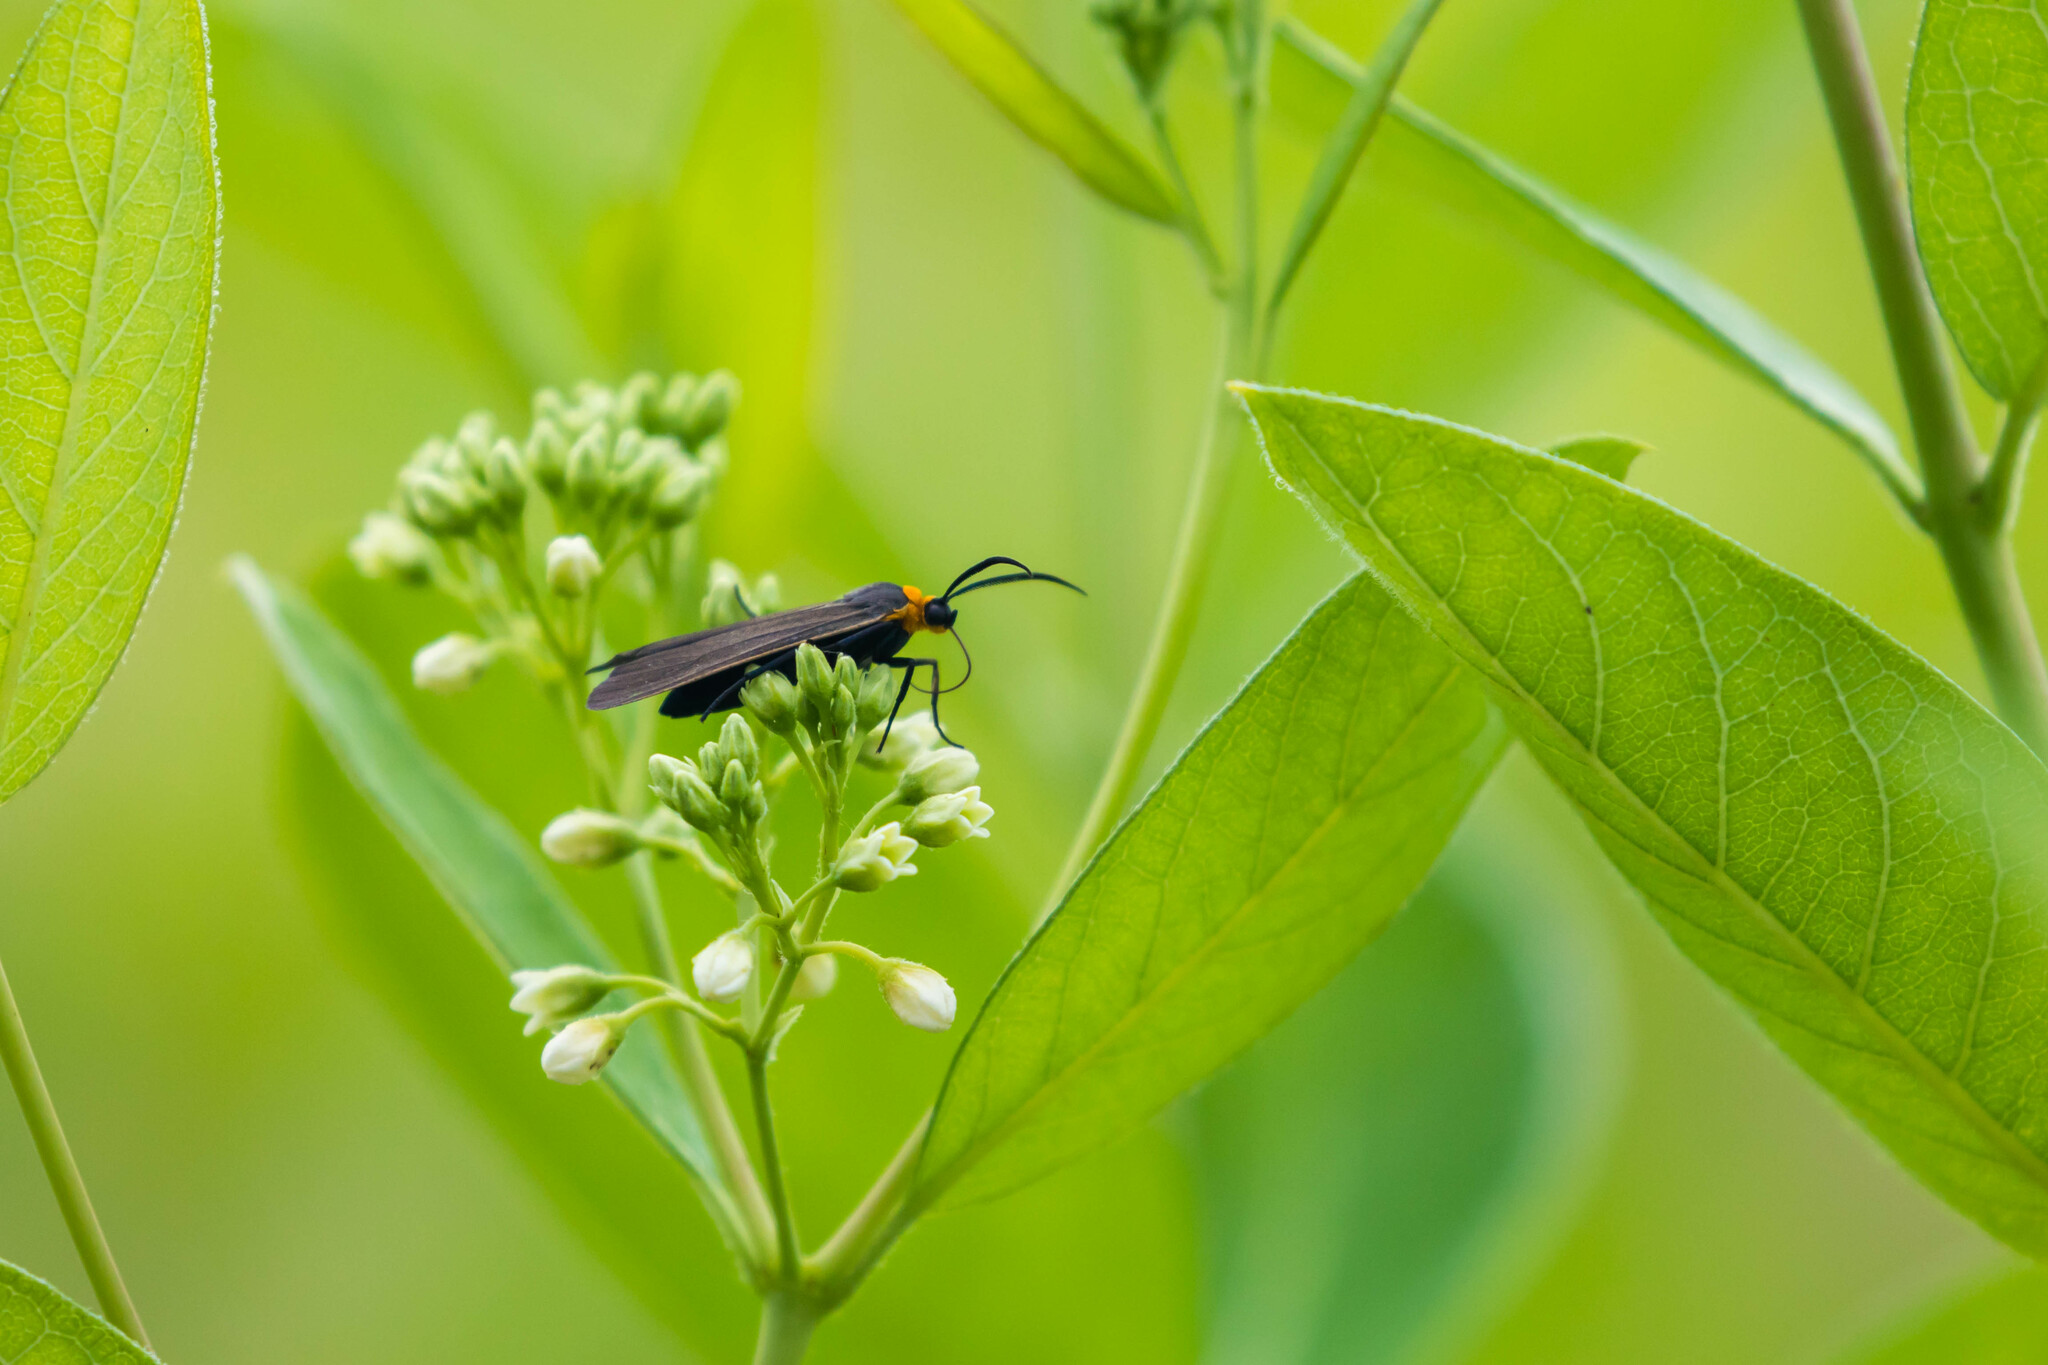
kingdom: Animalia
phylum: Arthropoda
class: Insecta
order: Lepidoptera
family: Erebidae
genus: Cisseps
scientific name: Cisseps fulvicollis
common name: Yellow-collared scape moth
